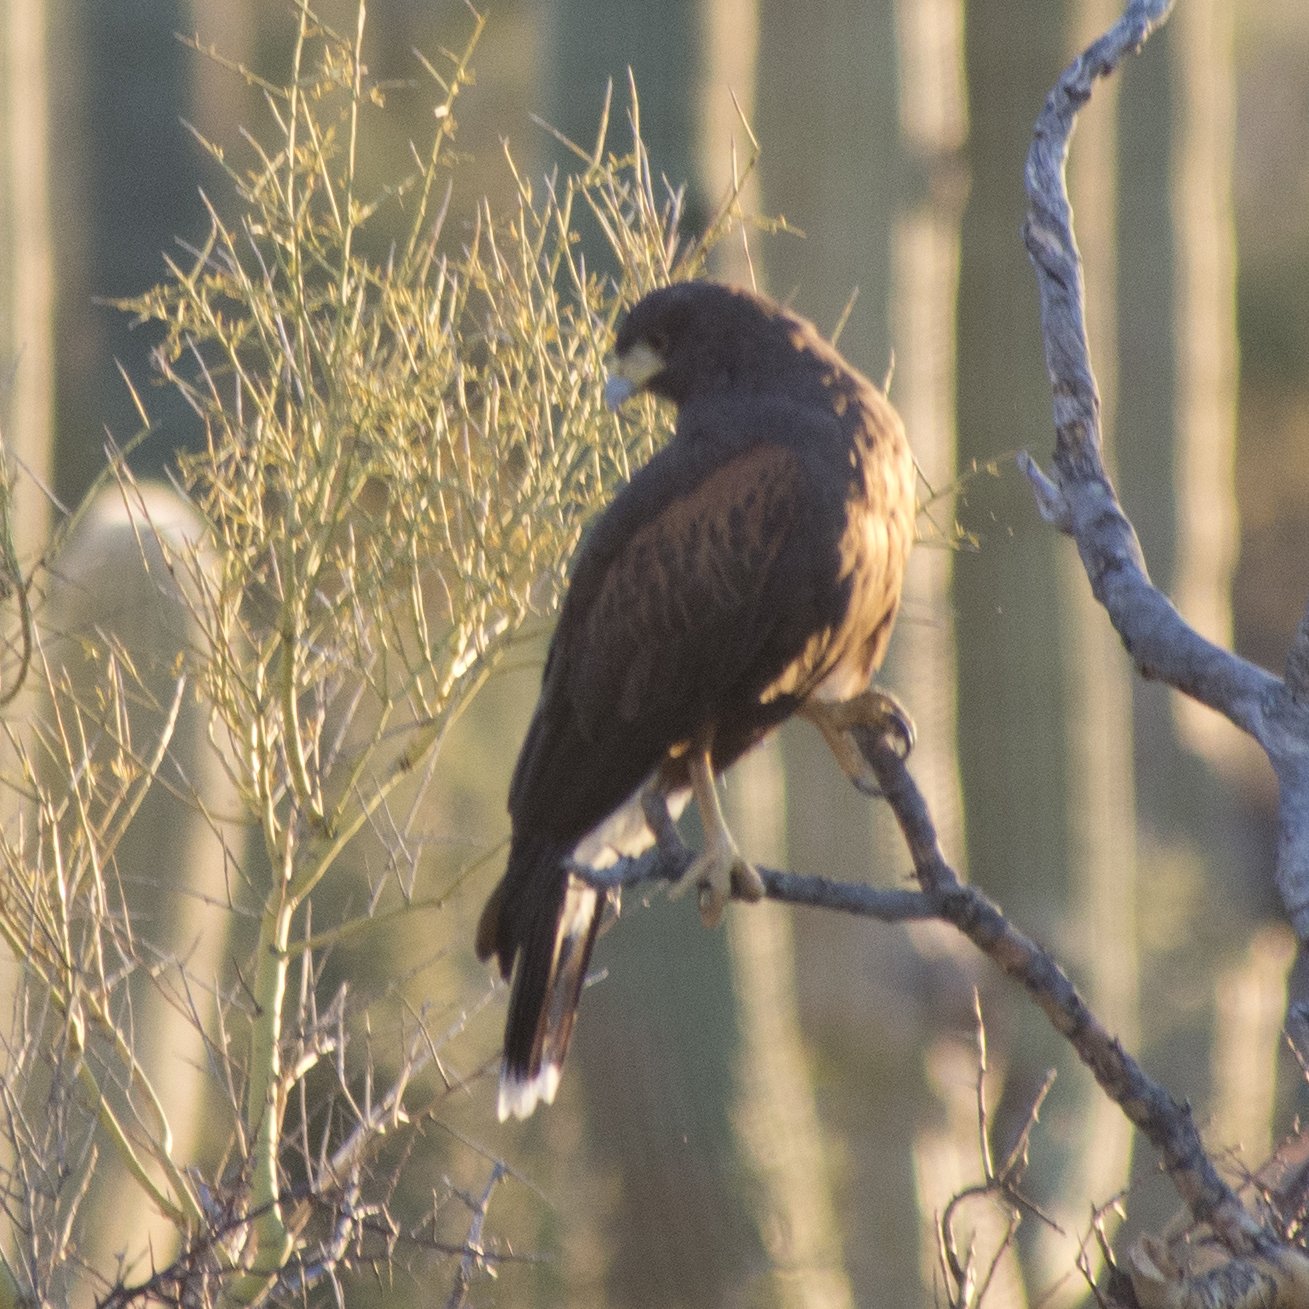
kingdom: Animalia
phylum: Chordata
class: Aves
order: Accipitriformes
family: Accipitridae
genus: Parabuteo
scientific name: Parabuteo unicinctus
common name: Harris's hawk
